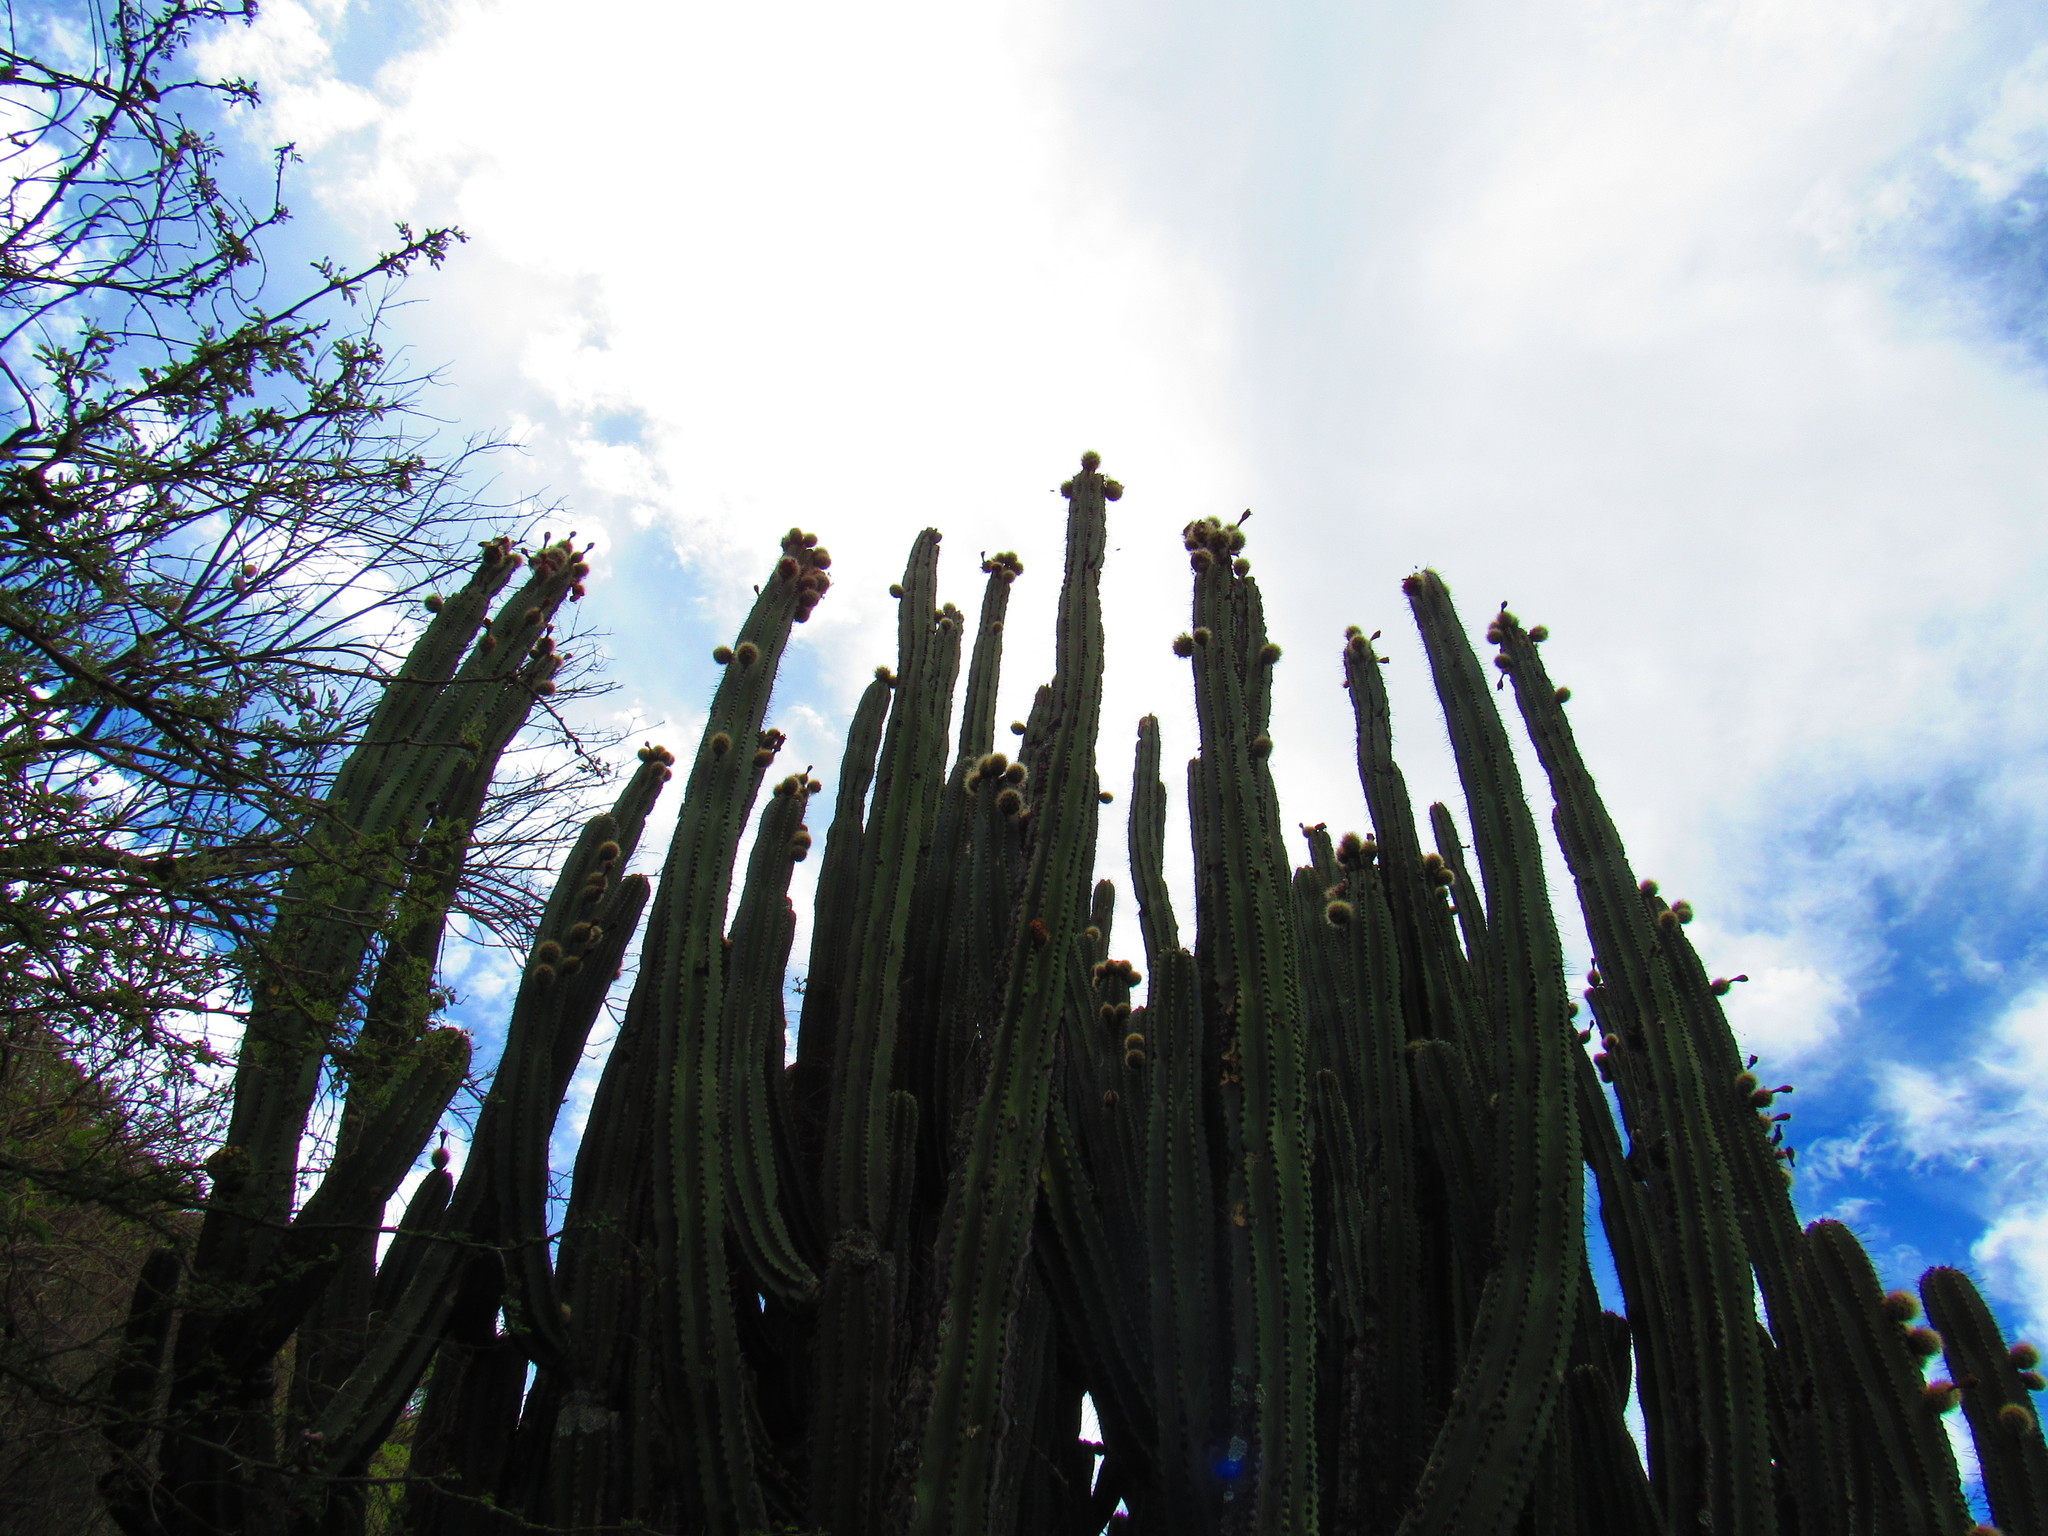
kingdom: Plantae
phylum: Tracheophyta
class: Magnoliopsida
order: Caryophyllales
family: Cactaceae
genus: Stenocereus
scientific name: Stenocereus queretaroensis
